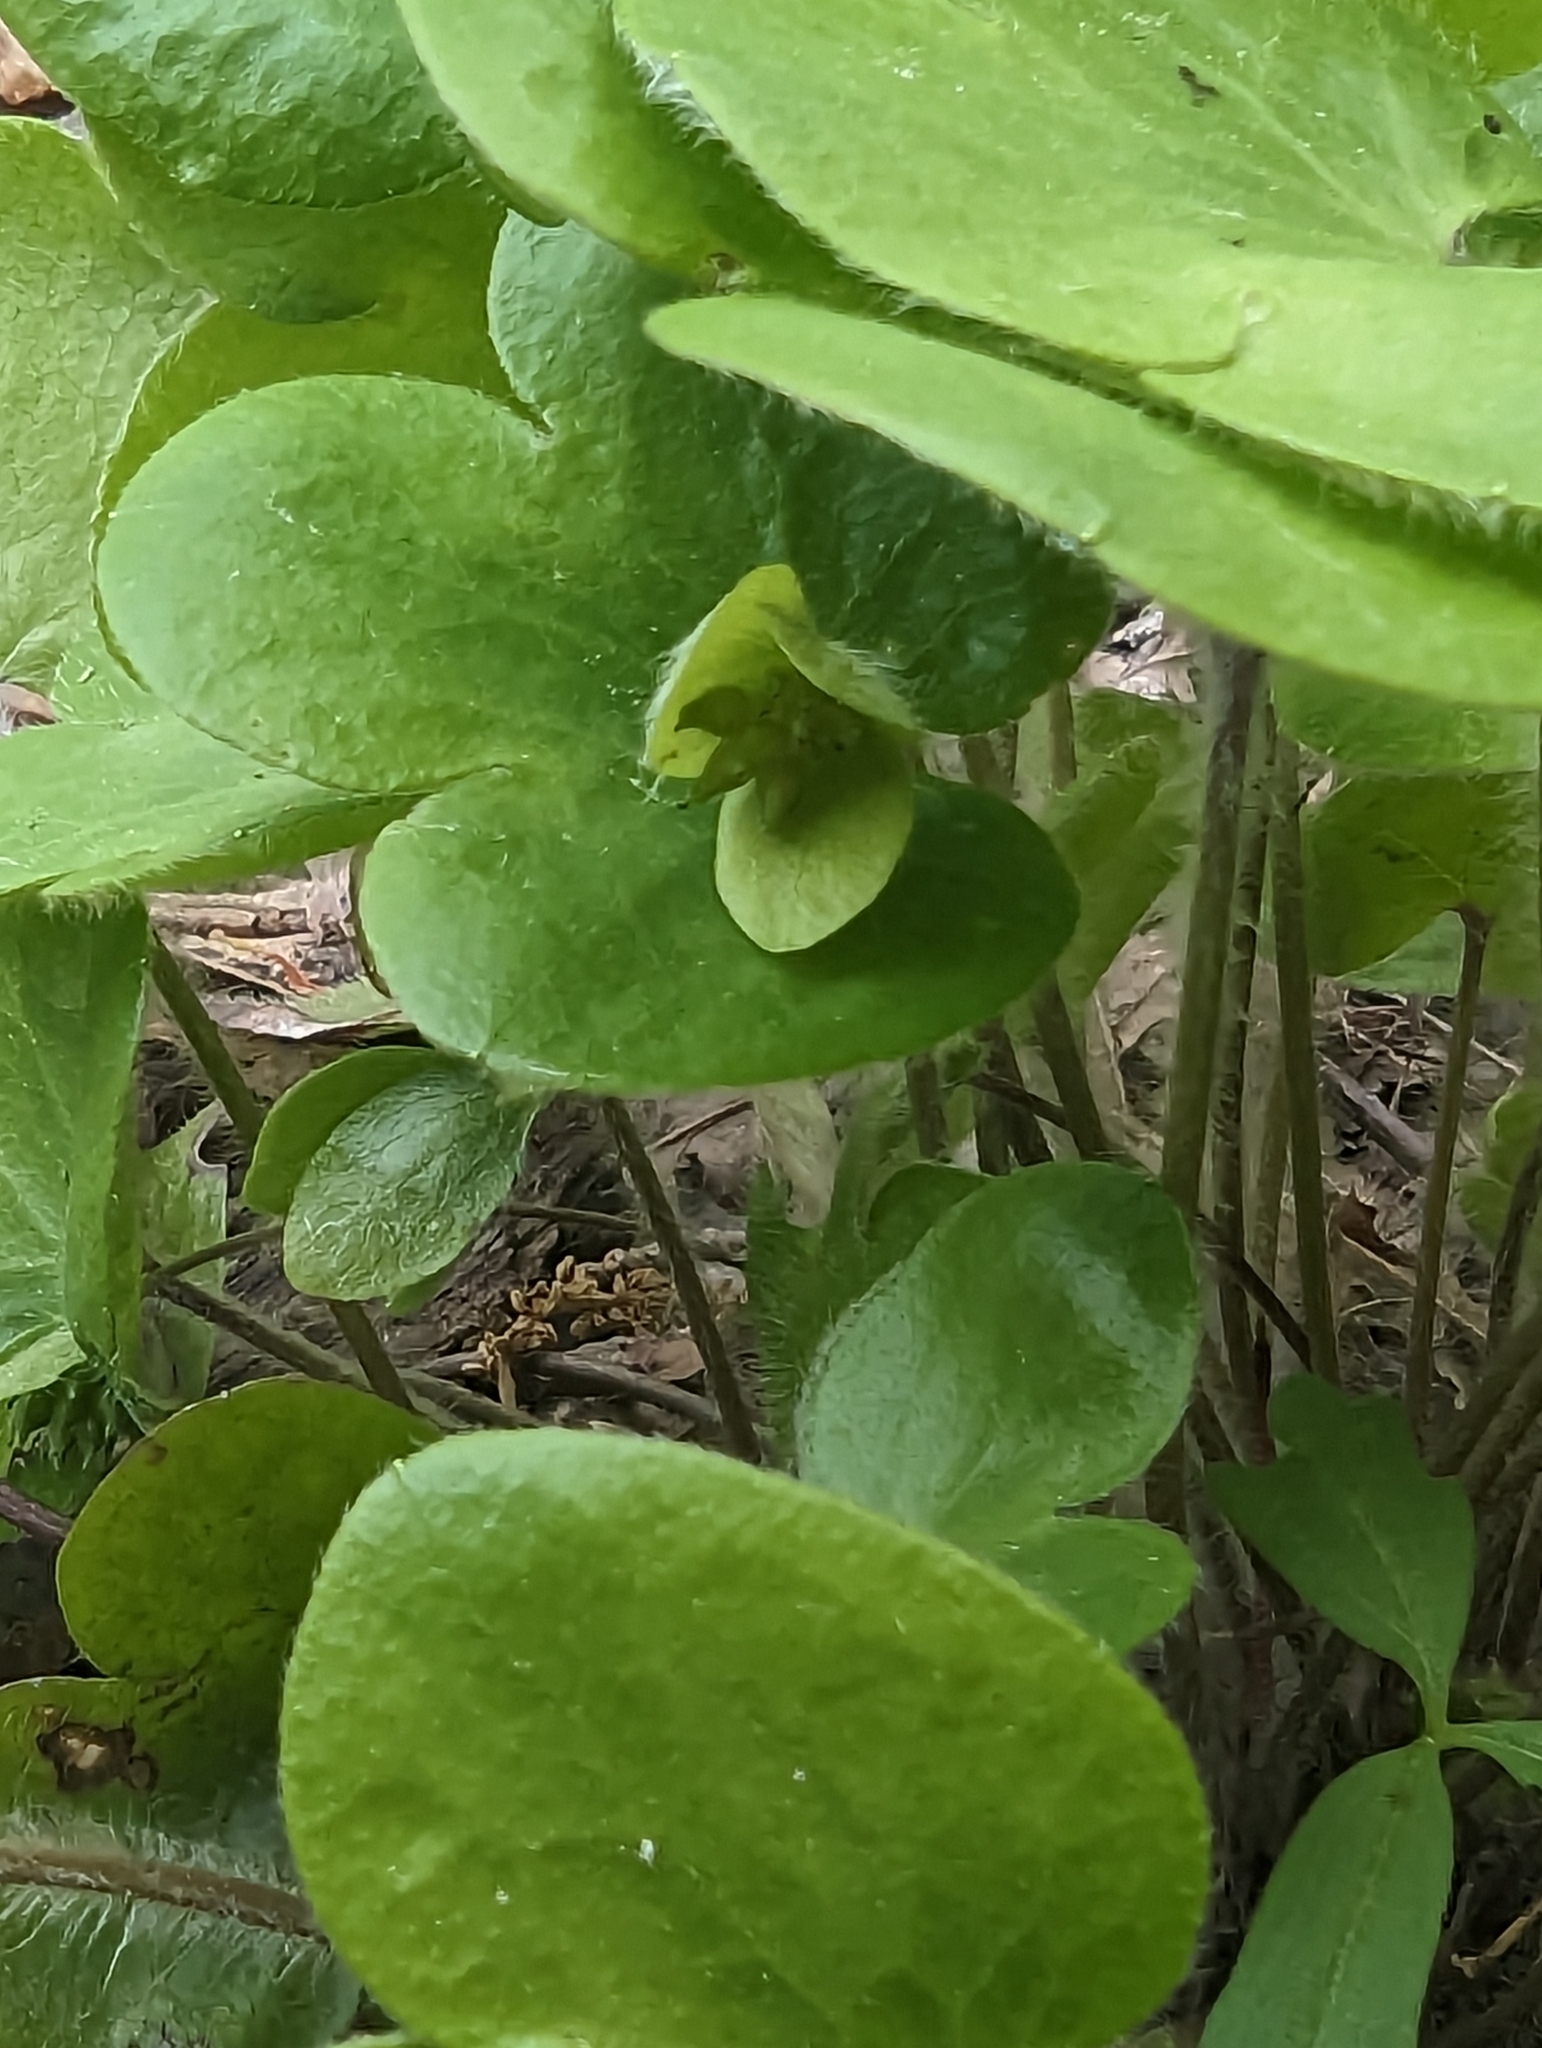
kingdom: Plantae
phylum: Tracheophyta
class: Magnoliopsida
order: Ranunculales
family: Ranunculaceae
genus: Hepatica
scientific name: Hepatica americana
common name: American hepatica
